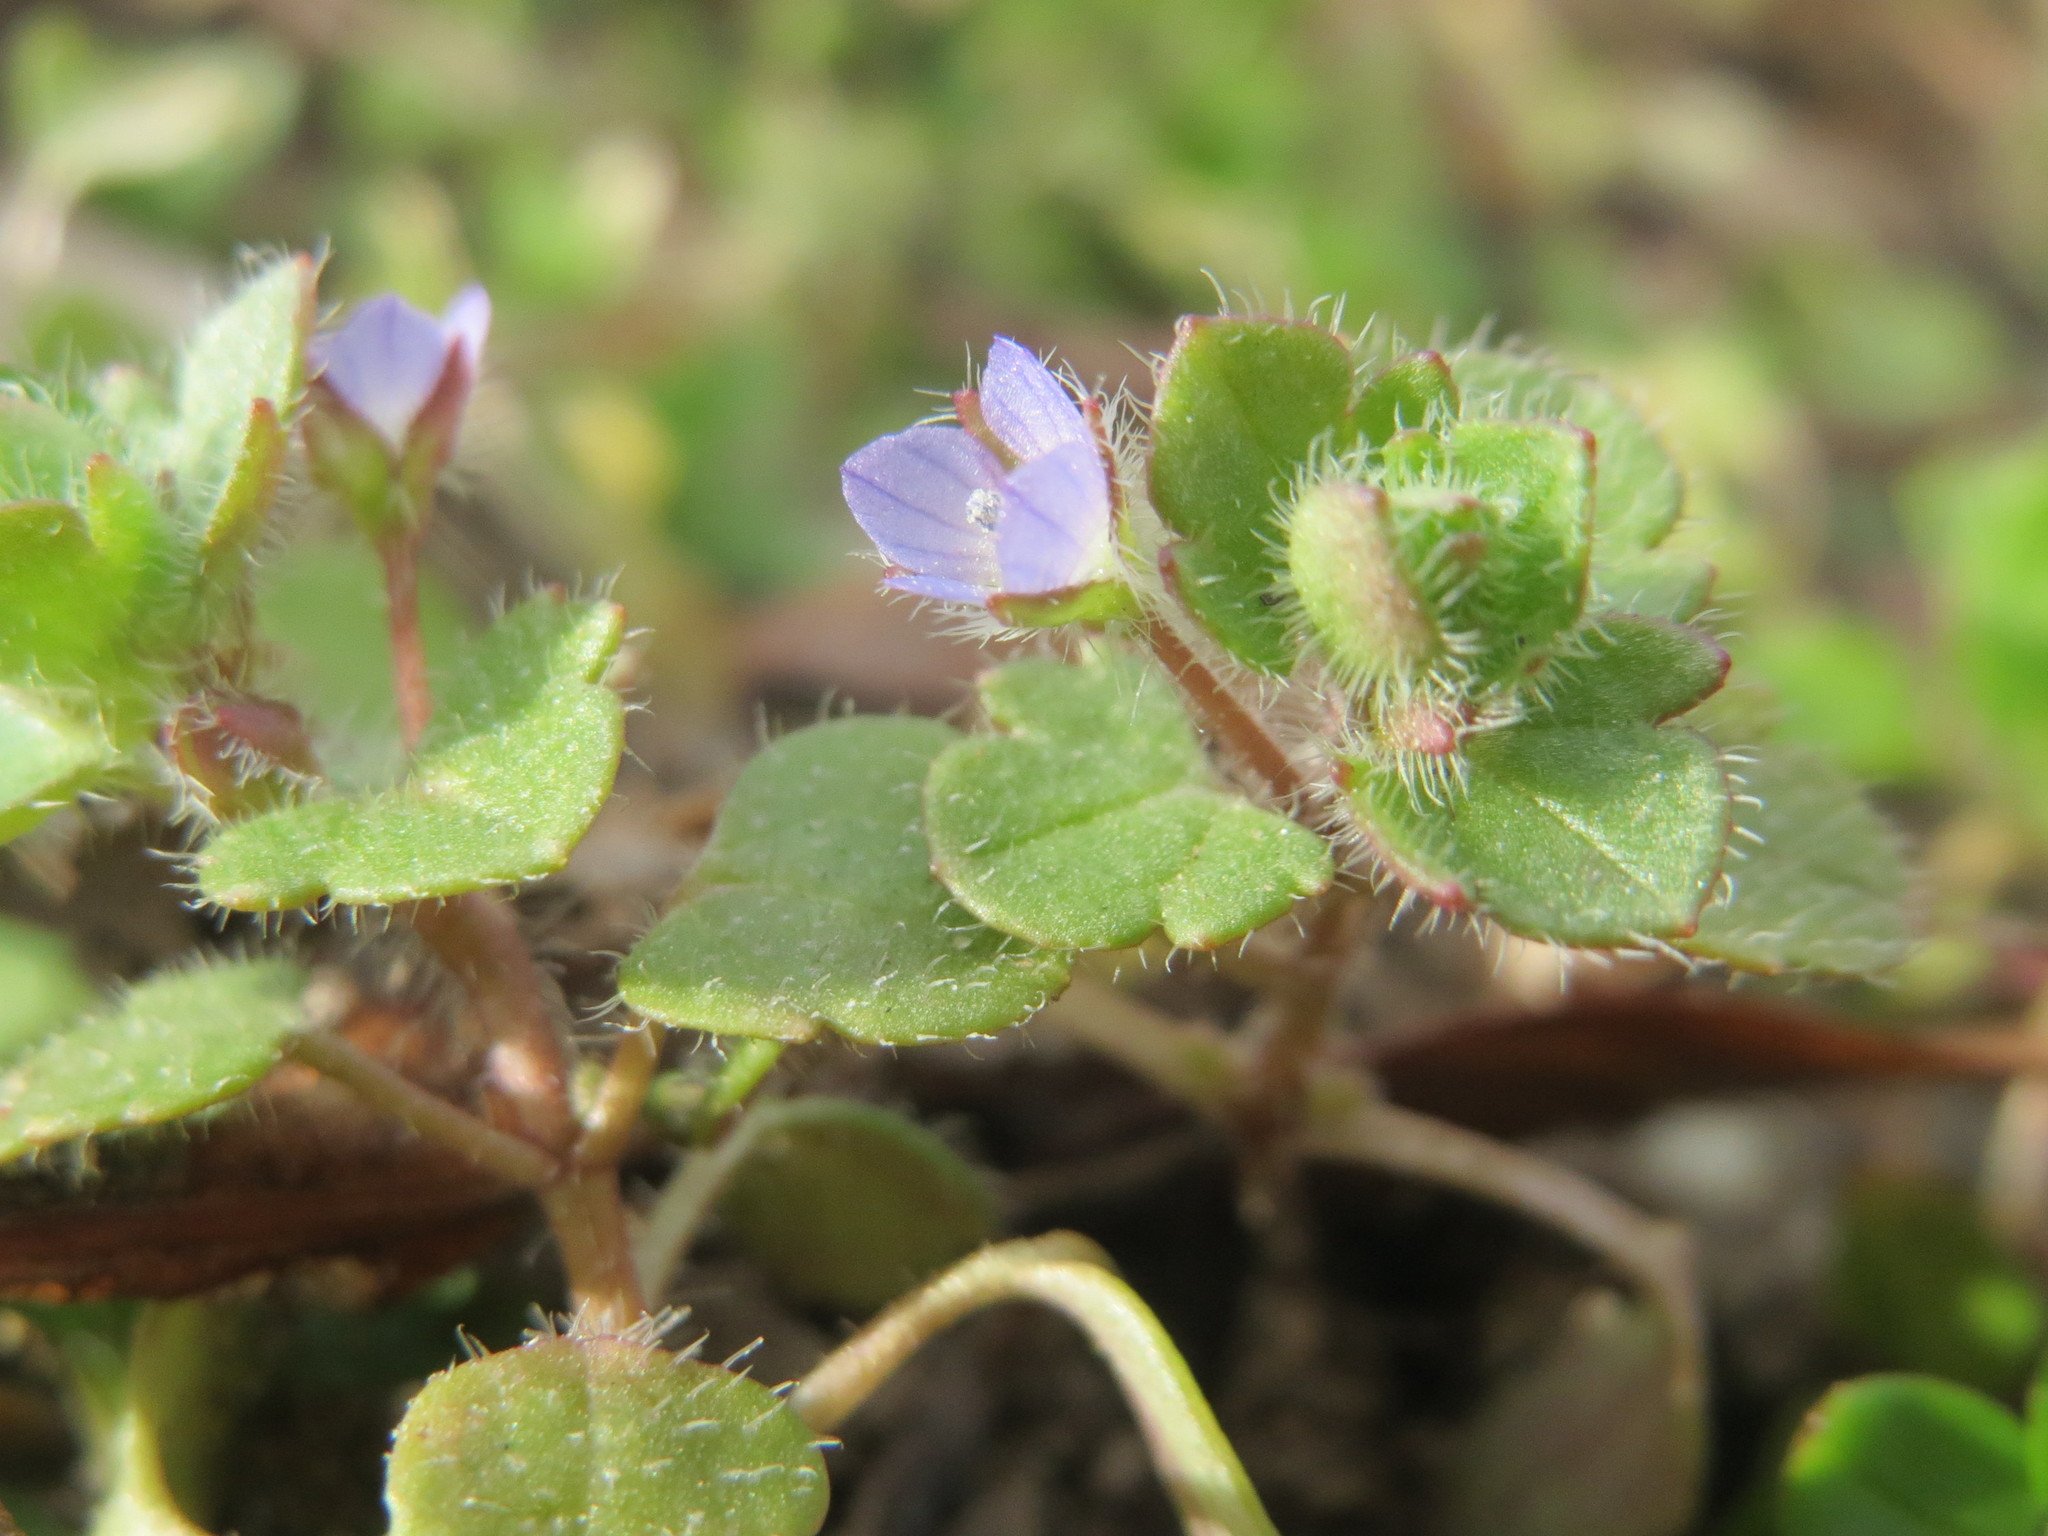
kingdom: Plantae
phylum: Tracheophyta
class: Magnoliopsida
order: Lamiales
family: Plantaginaceae
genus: Veronica
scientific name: Veronica hederifolia
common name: Ivy-leaved speedwell
